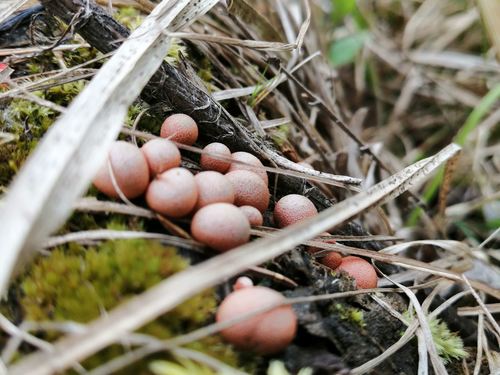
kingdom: Protozoa
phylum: Mycetozoa
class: Myxomycetes
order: Cribrariales
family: Tubiferaceae
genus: Lycogala
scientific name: Lycogala epidendrum
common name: Wolf's milk
